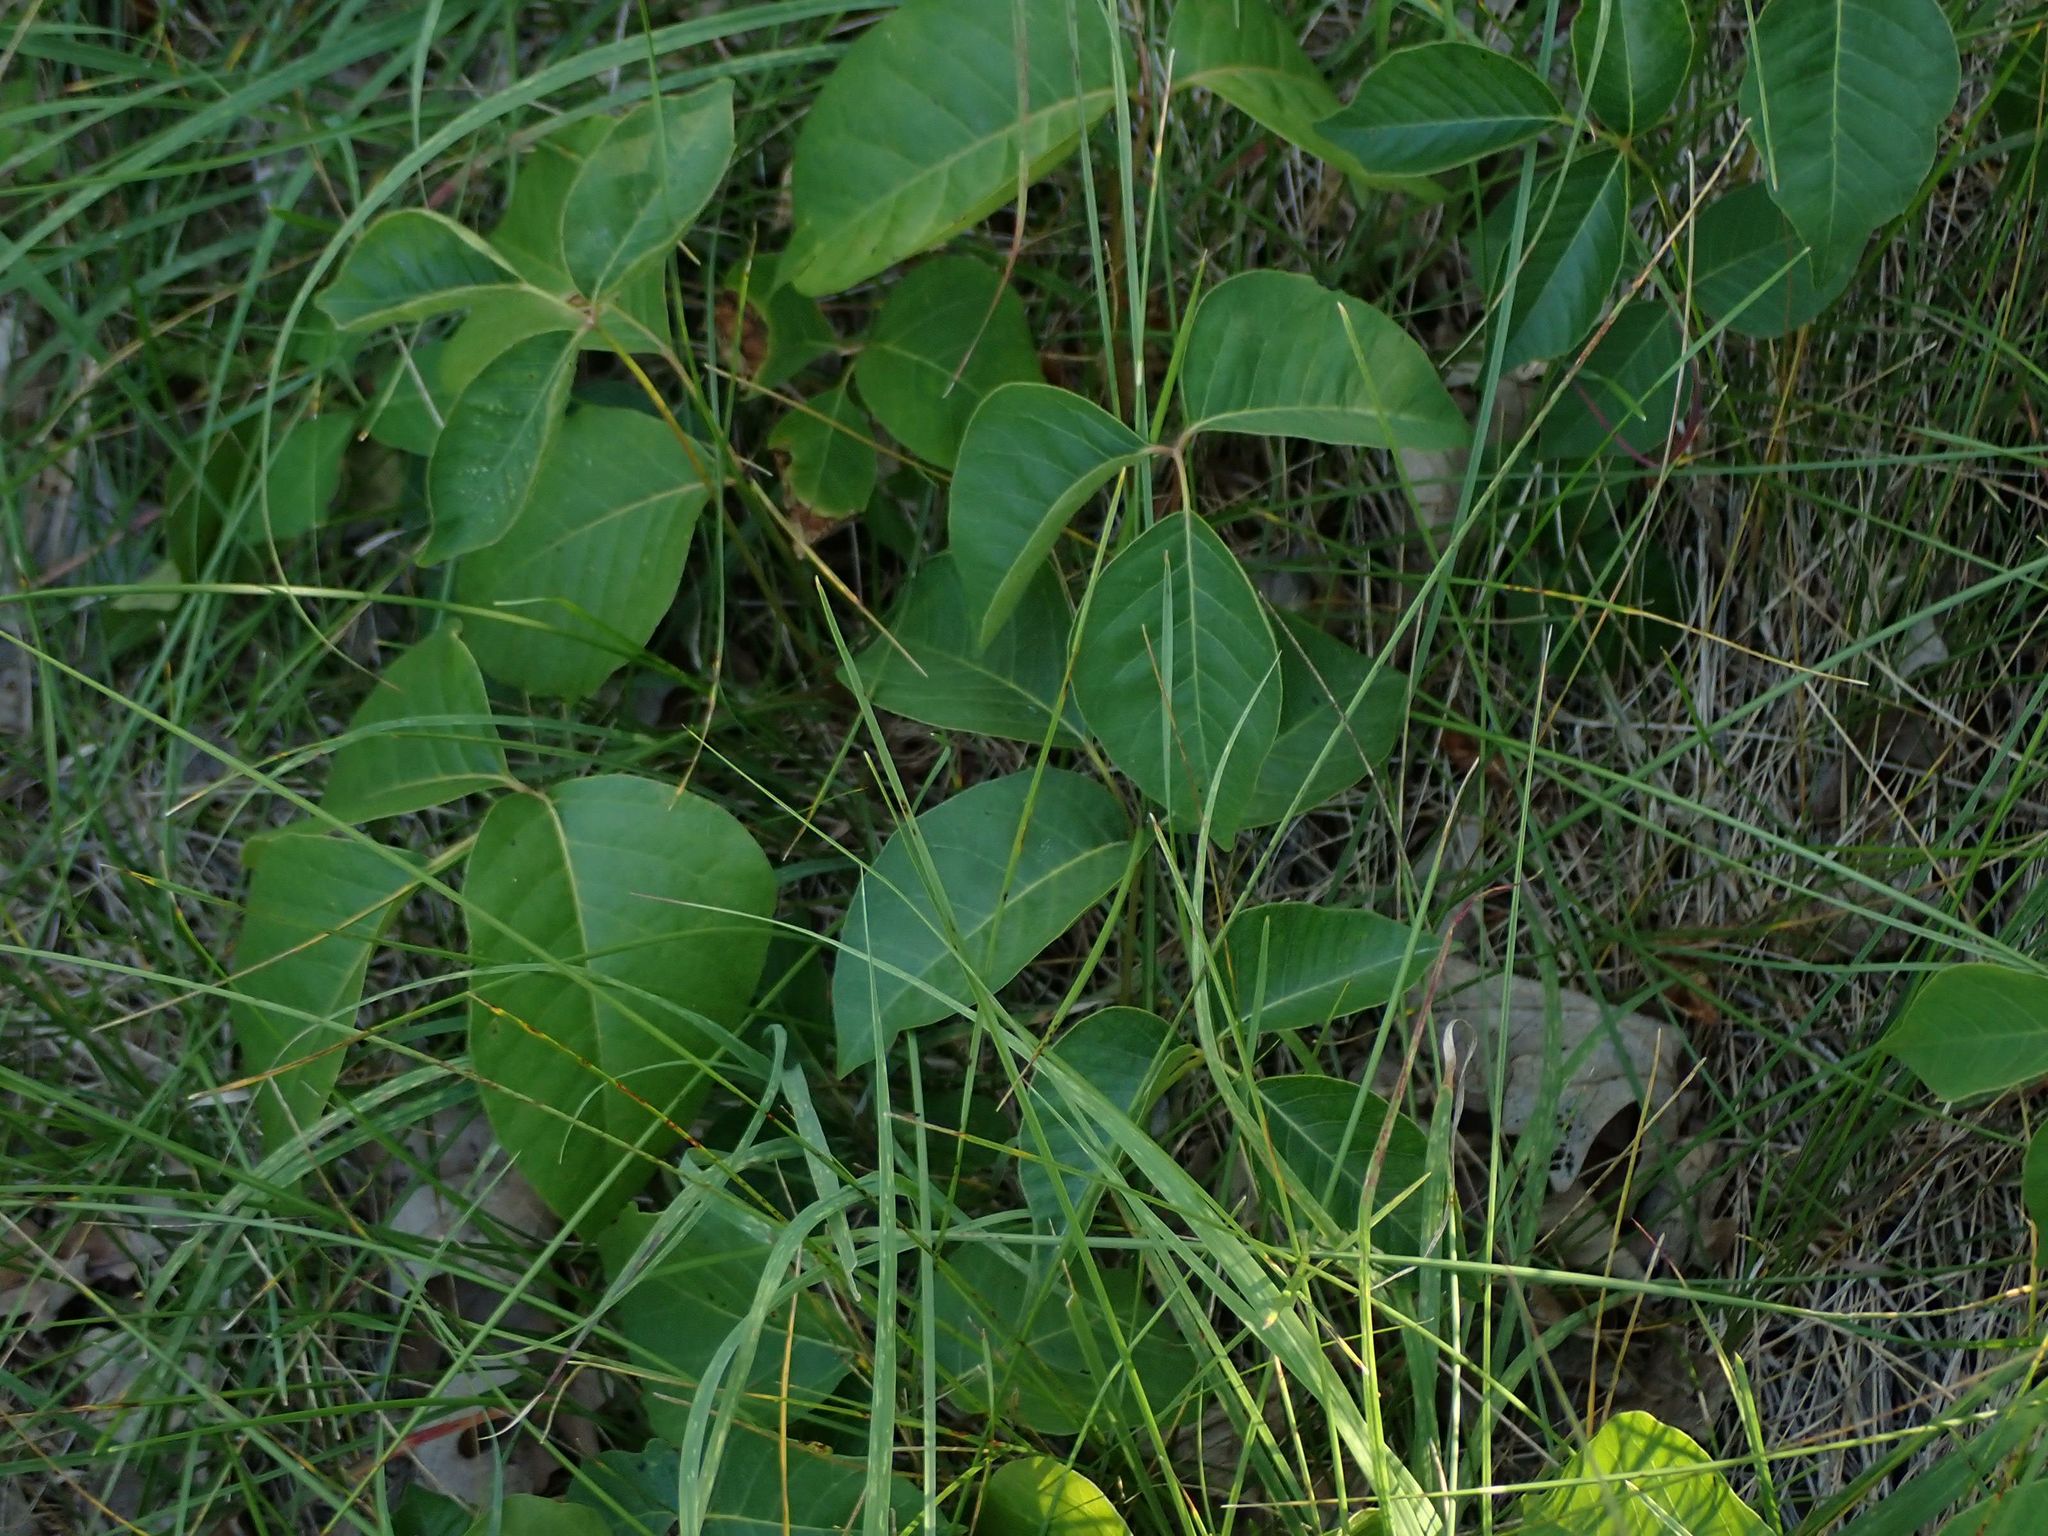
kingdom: Plantae
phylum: Tracheophyta
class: Magnoliopsida
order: Sapindales
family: Anacardiaceae
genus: Toxicodendron
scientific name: Toxicodendron rydbergii
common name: Rydberg's poison-ivy
